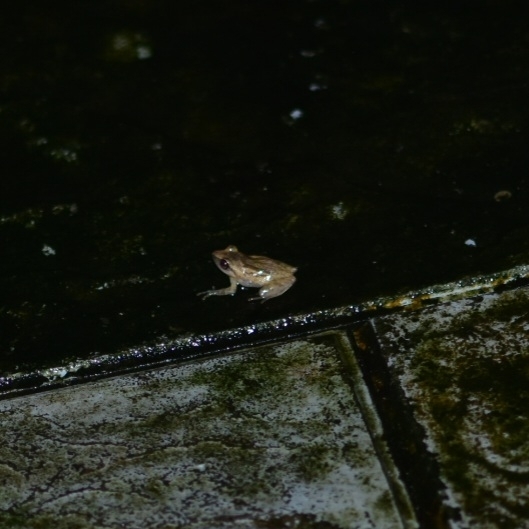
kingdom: Animalia
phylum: Chordata
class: Amphibia
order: Anura
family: Rhacophoridae
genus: Pseudophilautus
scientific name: Pseudophilautus wynaadensis
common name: Dark-eared bush frog
